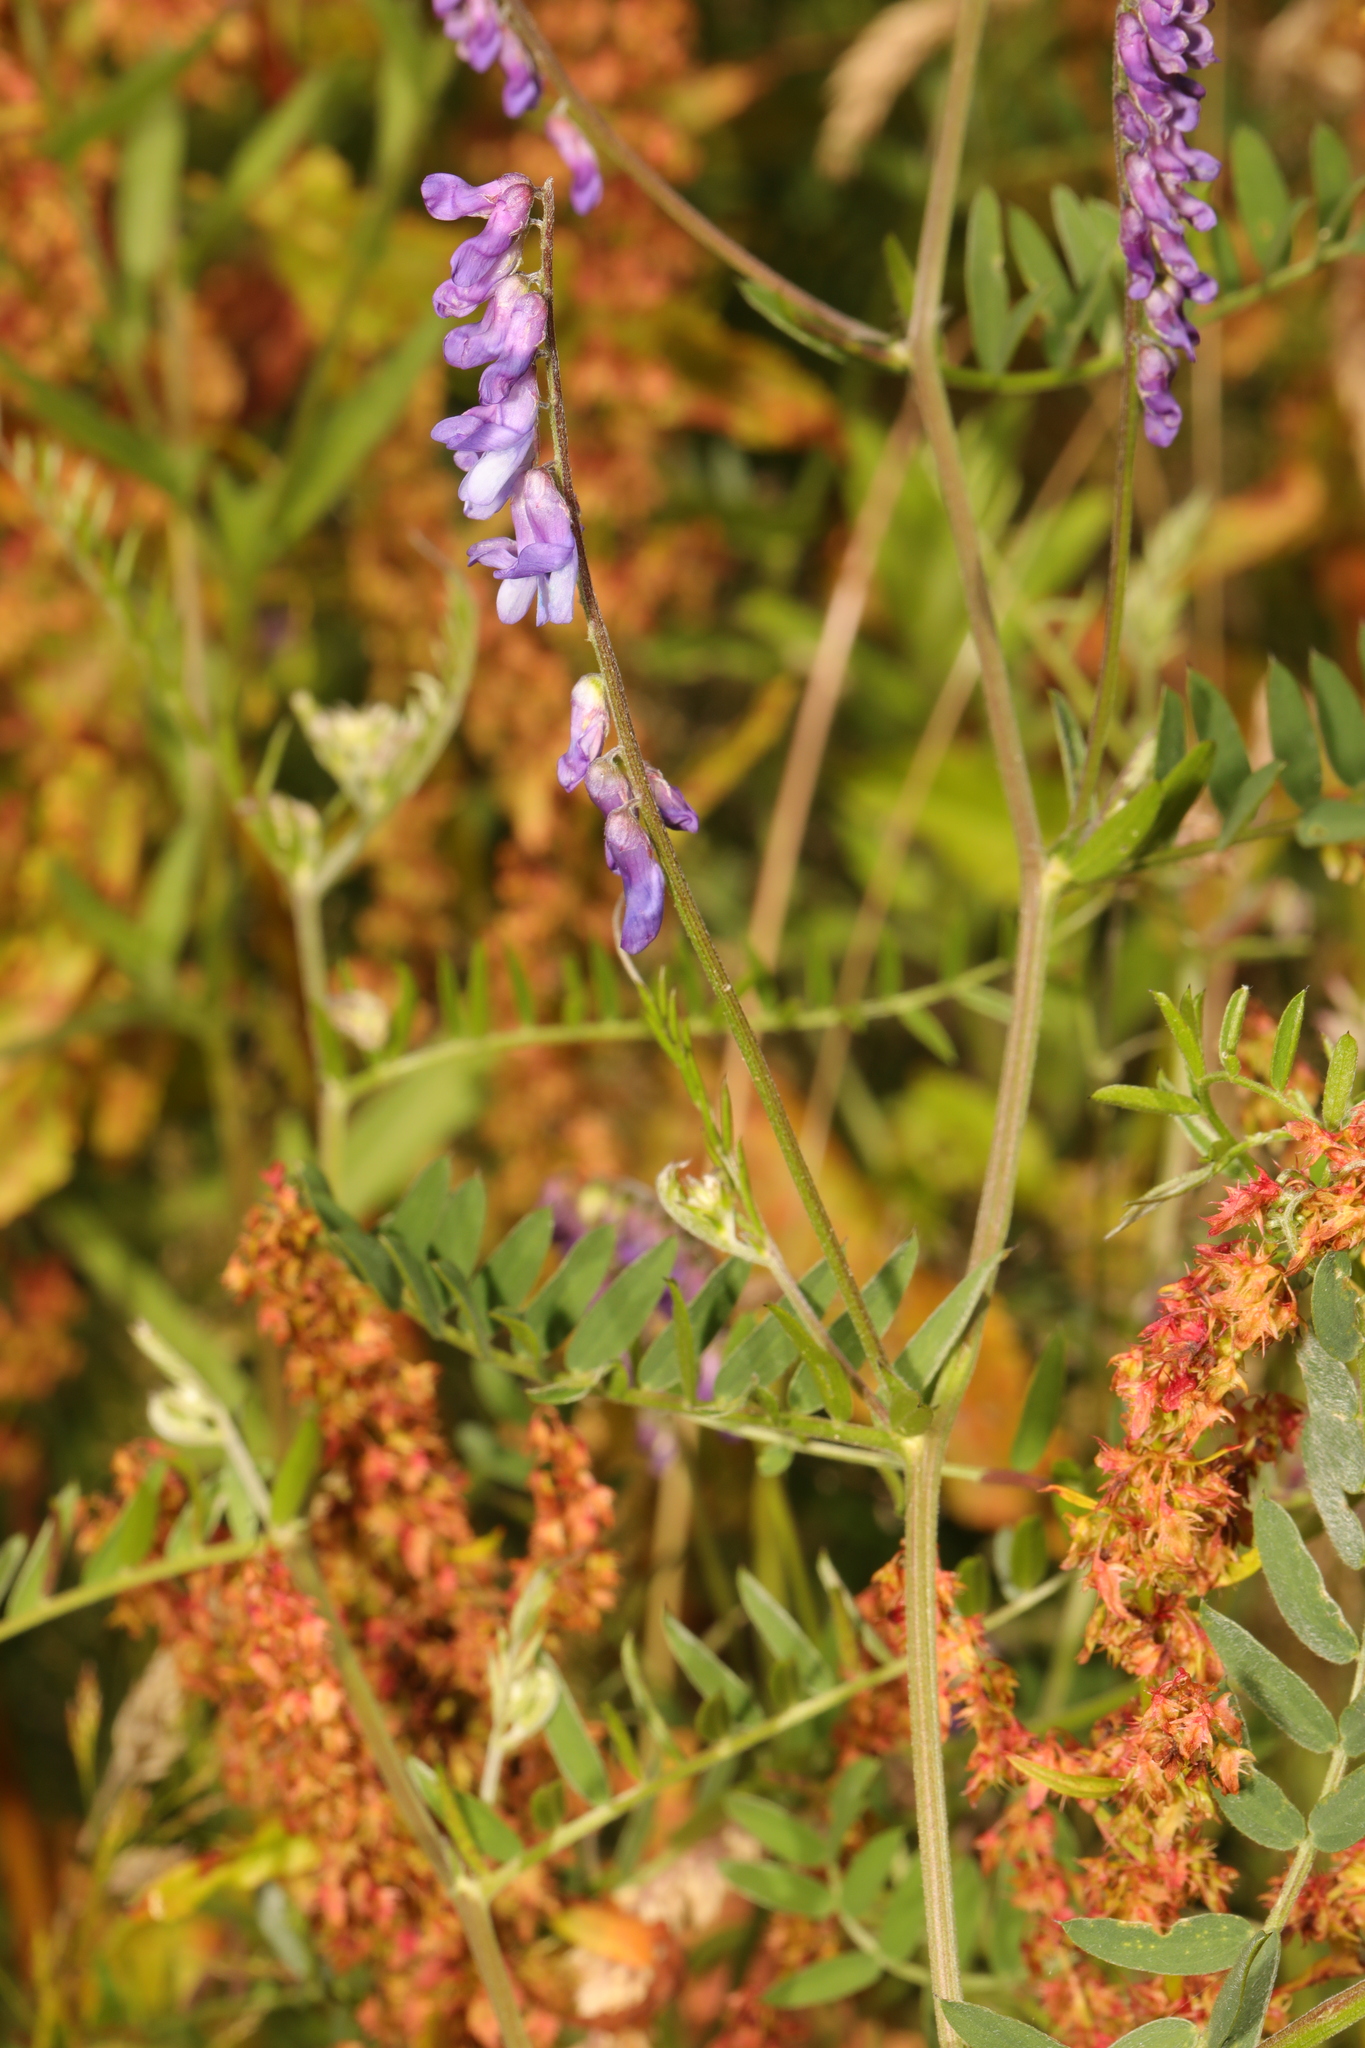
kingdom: Plantae
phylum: Tracheophyta
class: Magnoliopsida
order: Fabales
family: Fabaceae
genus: Vicia
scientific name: Vicia cracca
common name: Bird vetch
